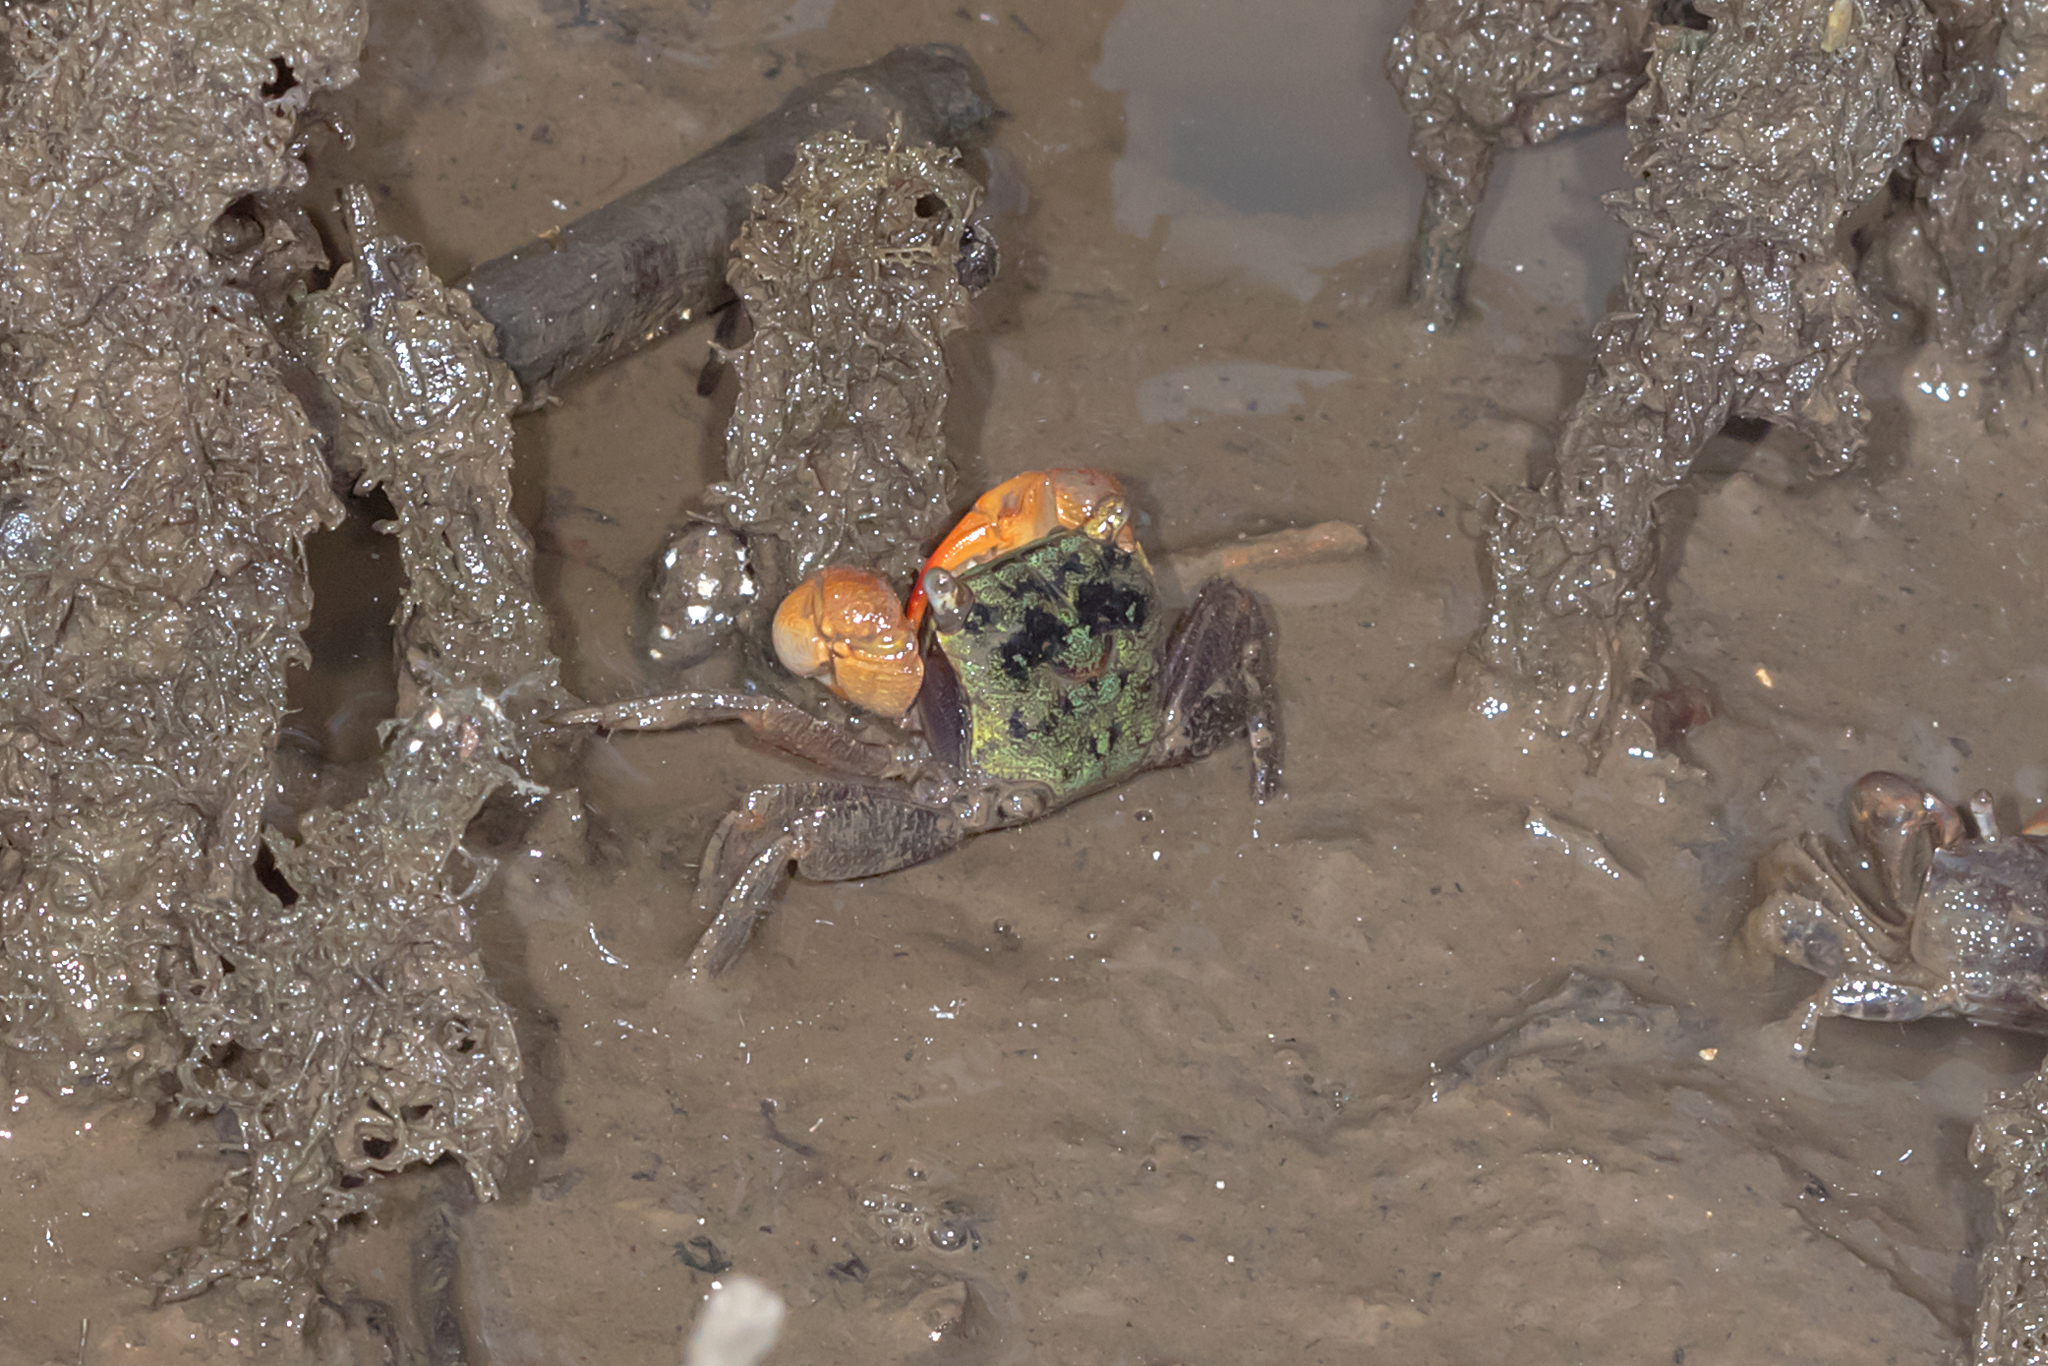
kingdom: Animalia
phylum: Arthropoda
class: Malacostraca
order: Decapoda
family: Sesarmidae
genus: Parasesarma
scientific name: Parasesarma erythodactylum
